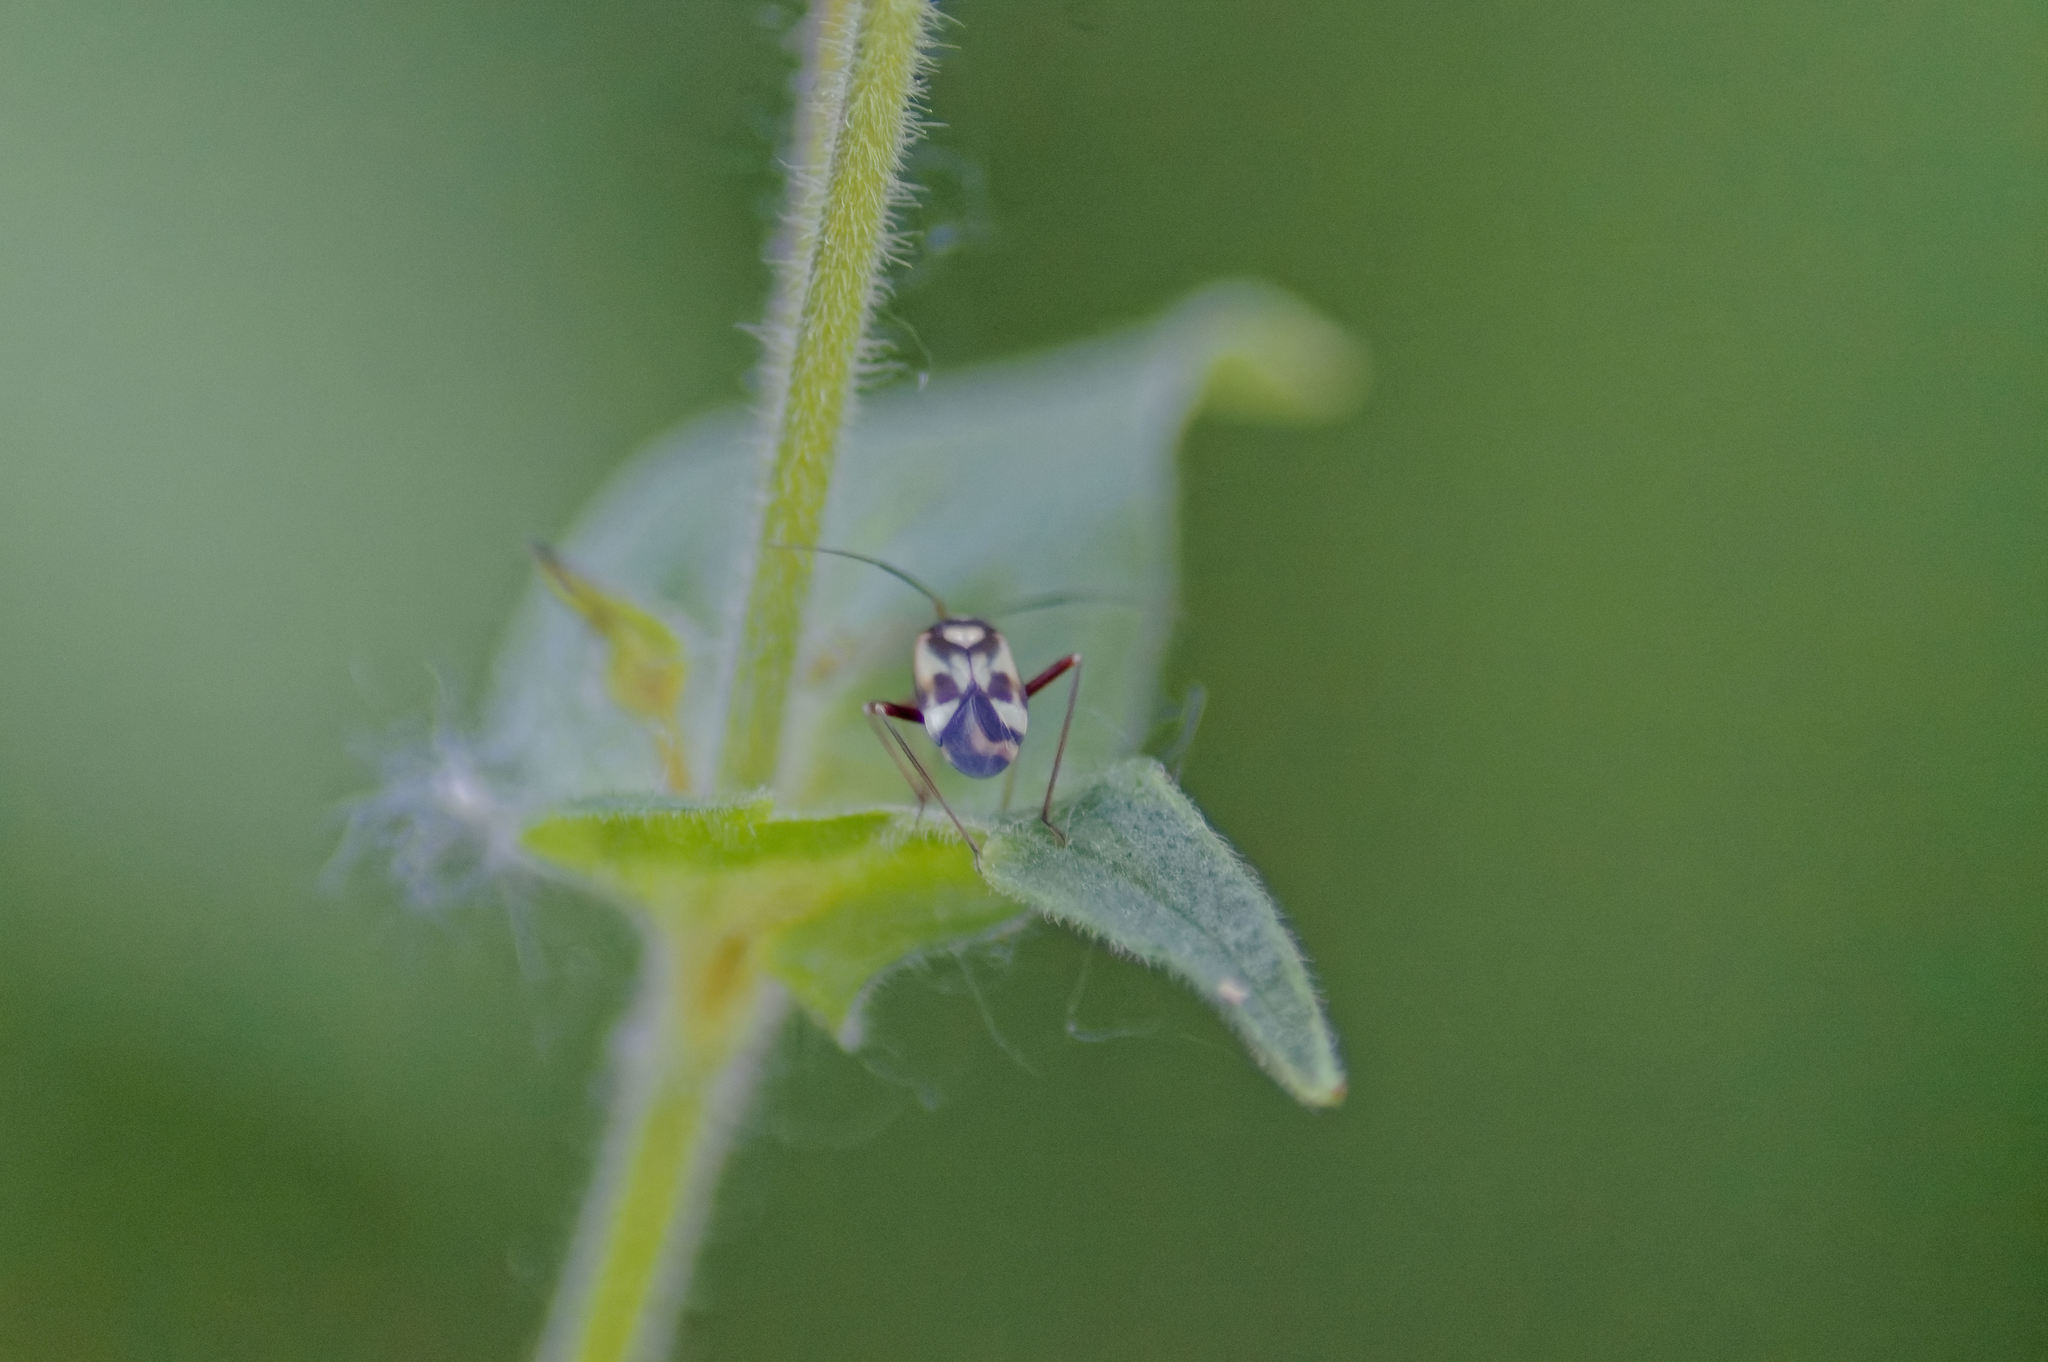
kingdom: Animalia
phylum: Arthropoda
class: Insecta
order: Hemiptera
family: Miridae
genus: Grypocoris
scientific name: Grypocoris sexguttatus
